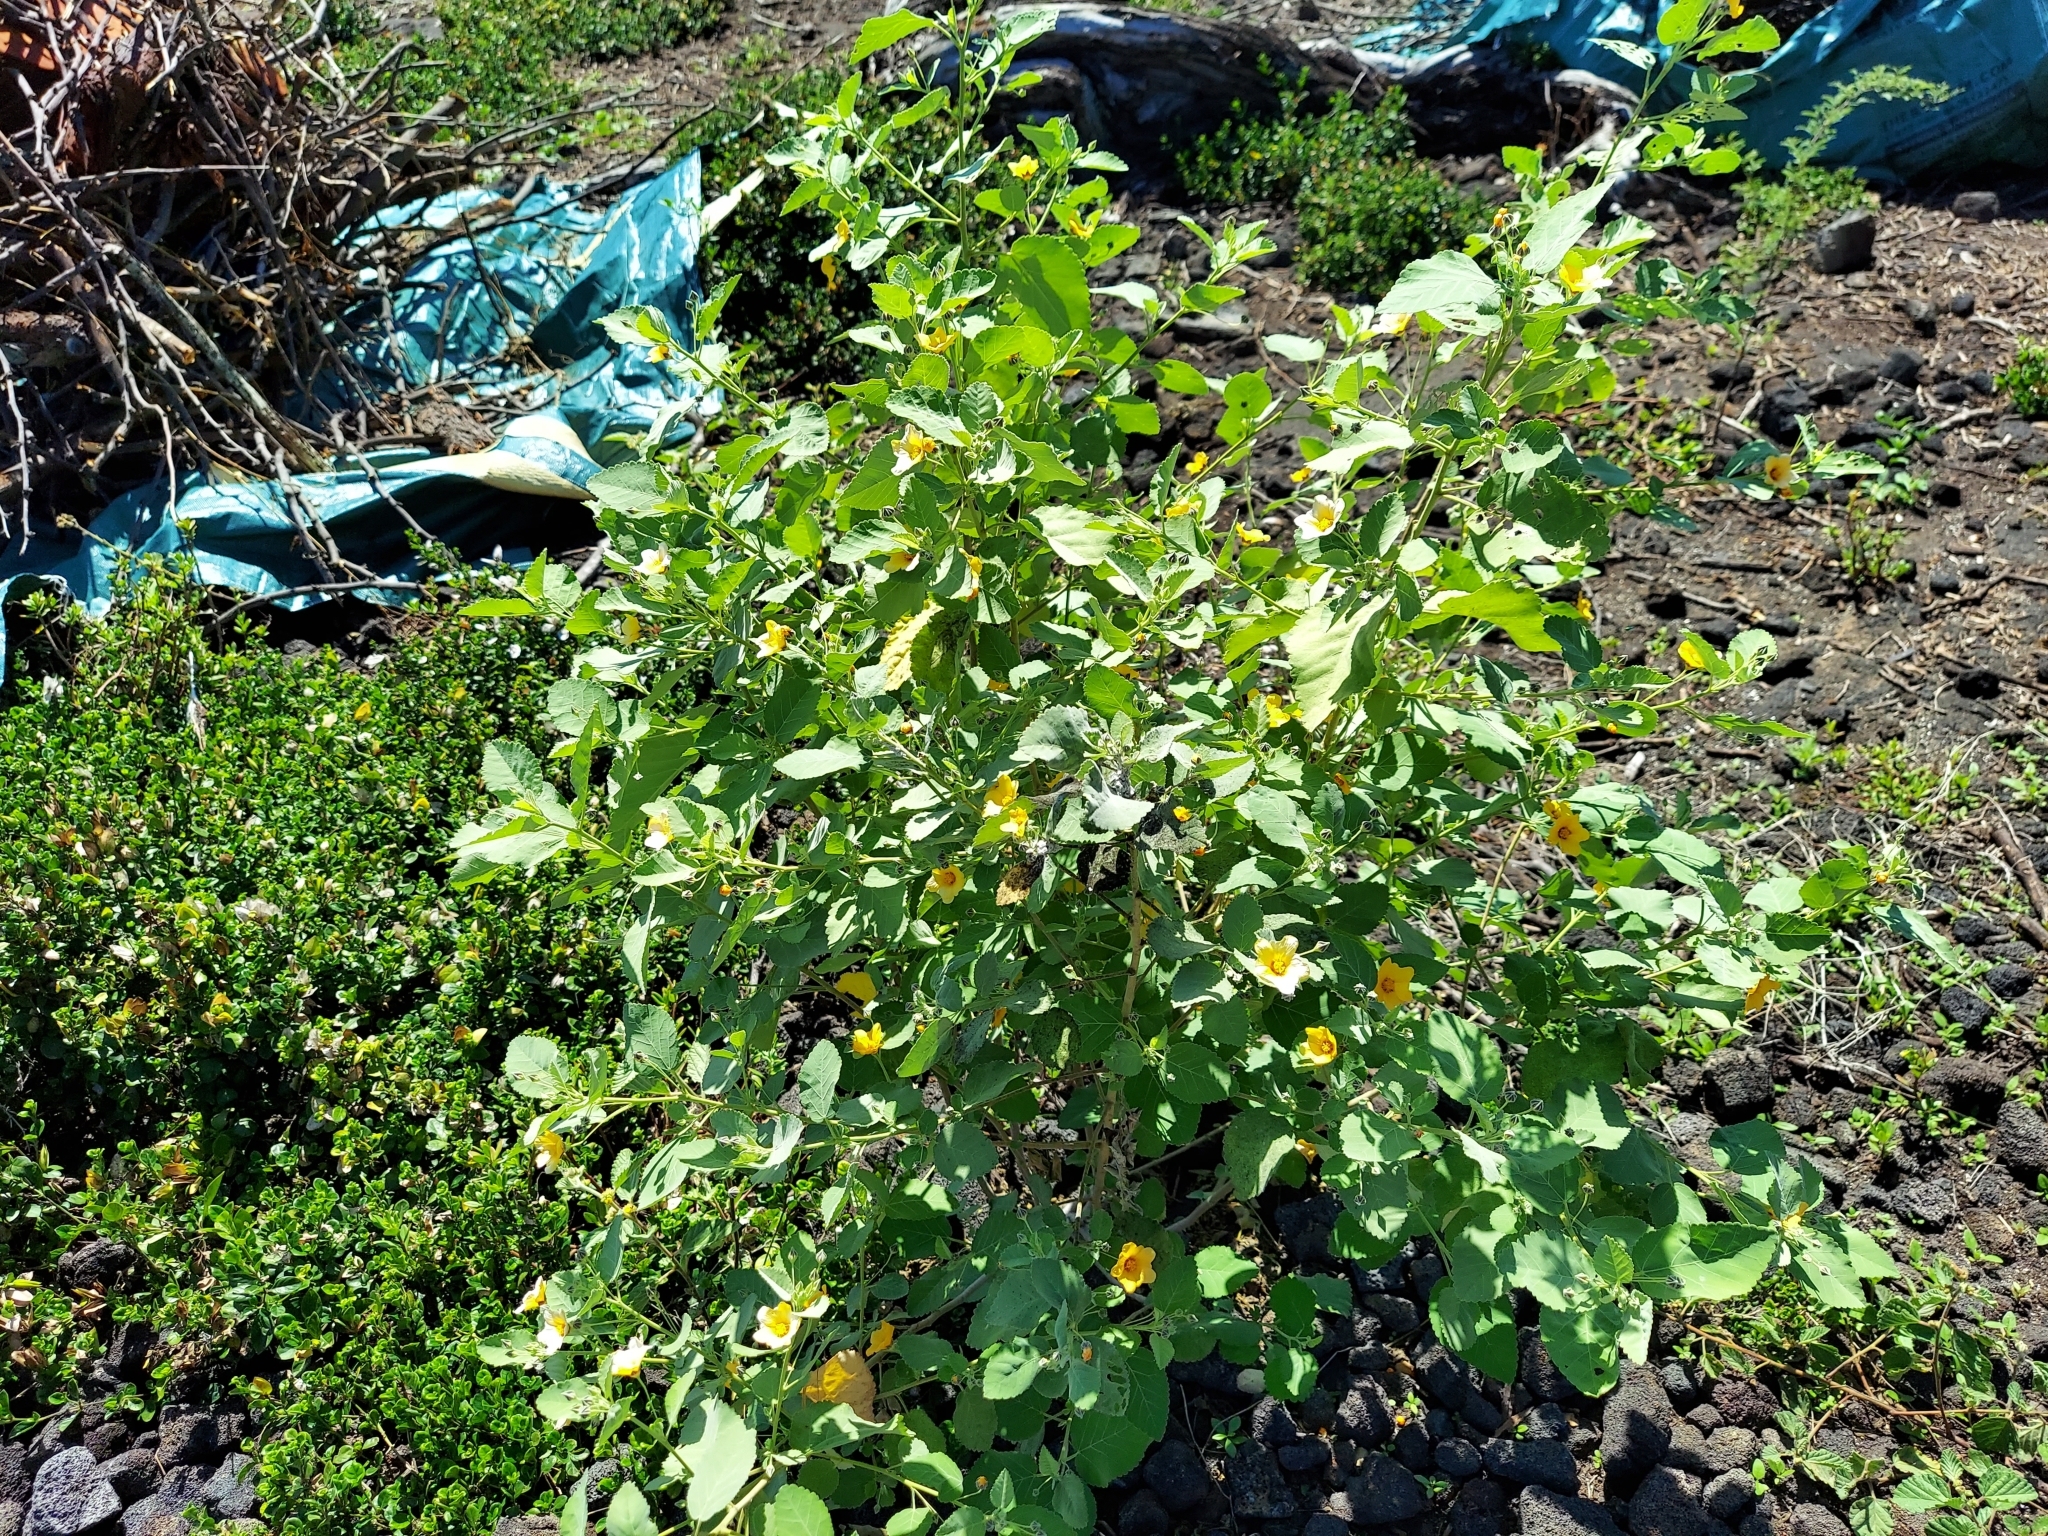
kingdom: Plantae
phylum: Tracheophyta
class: Magnoliopsida
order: Malvales
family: Malvaceae
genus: Sida
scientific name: Sida fallax
